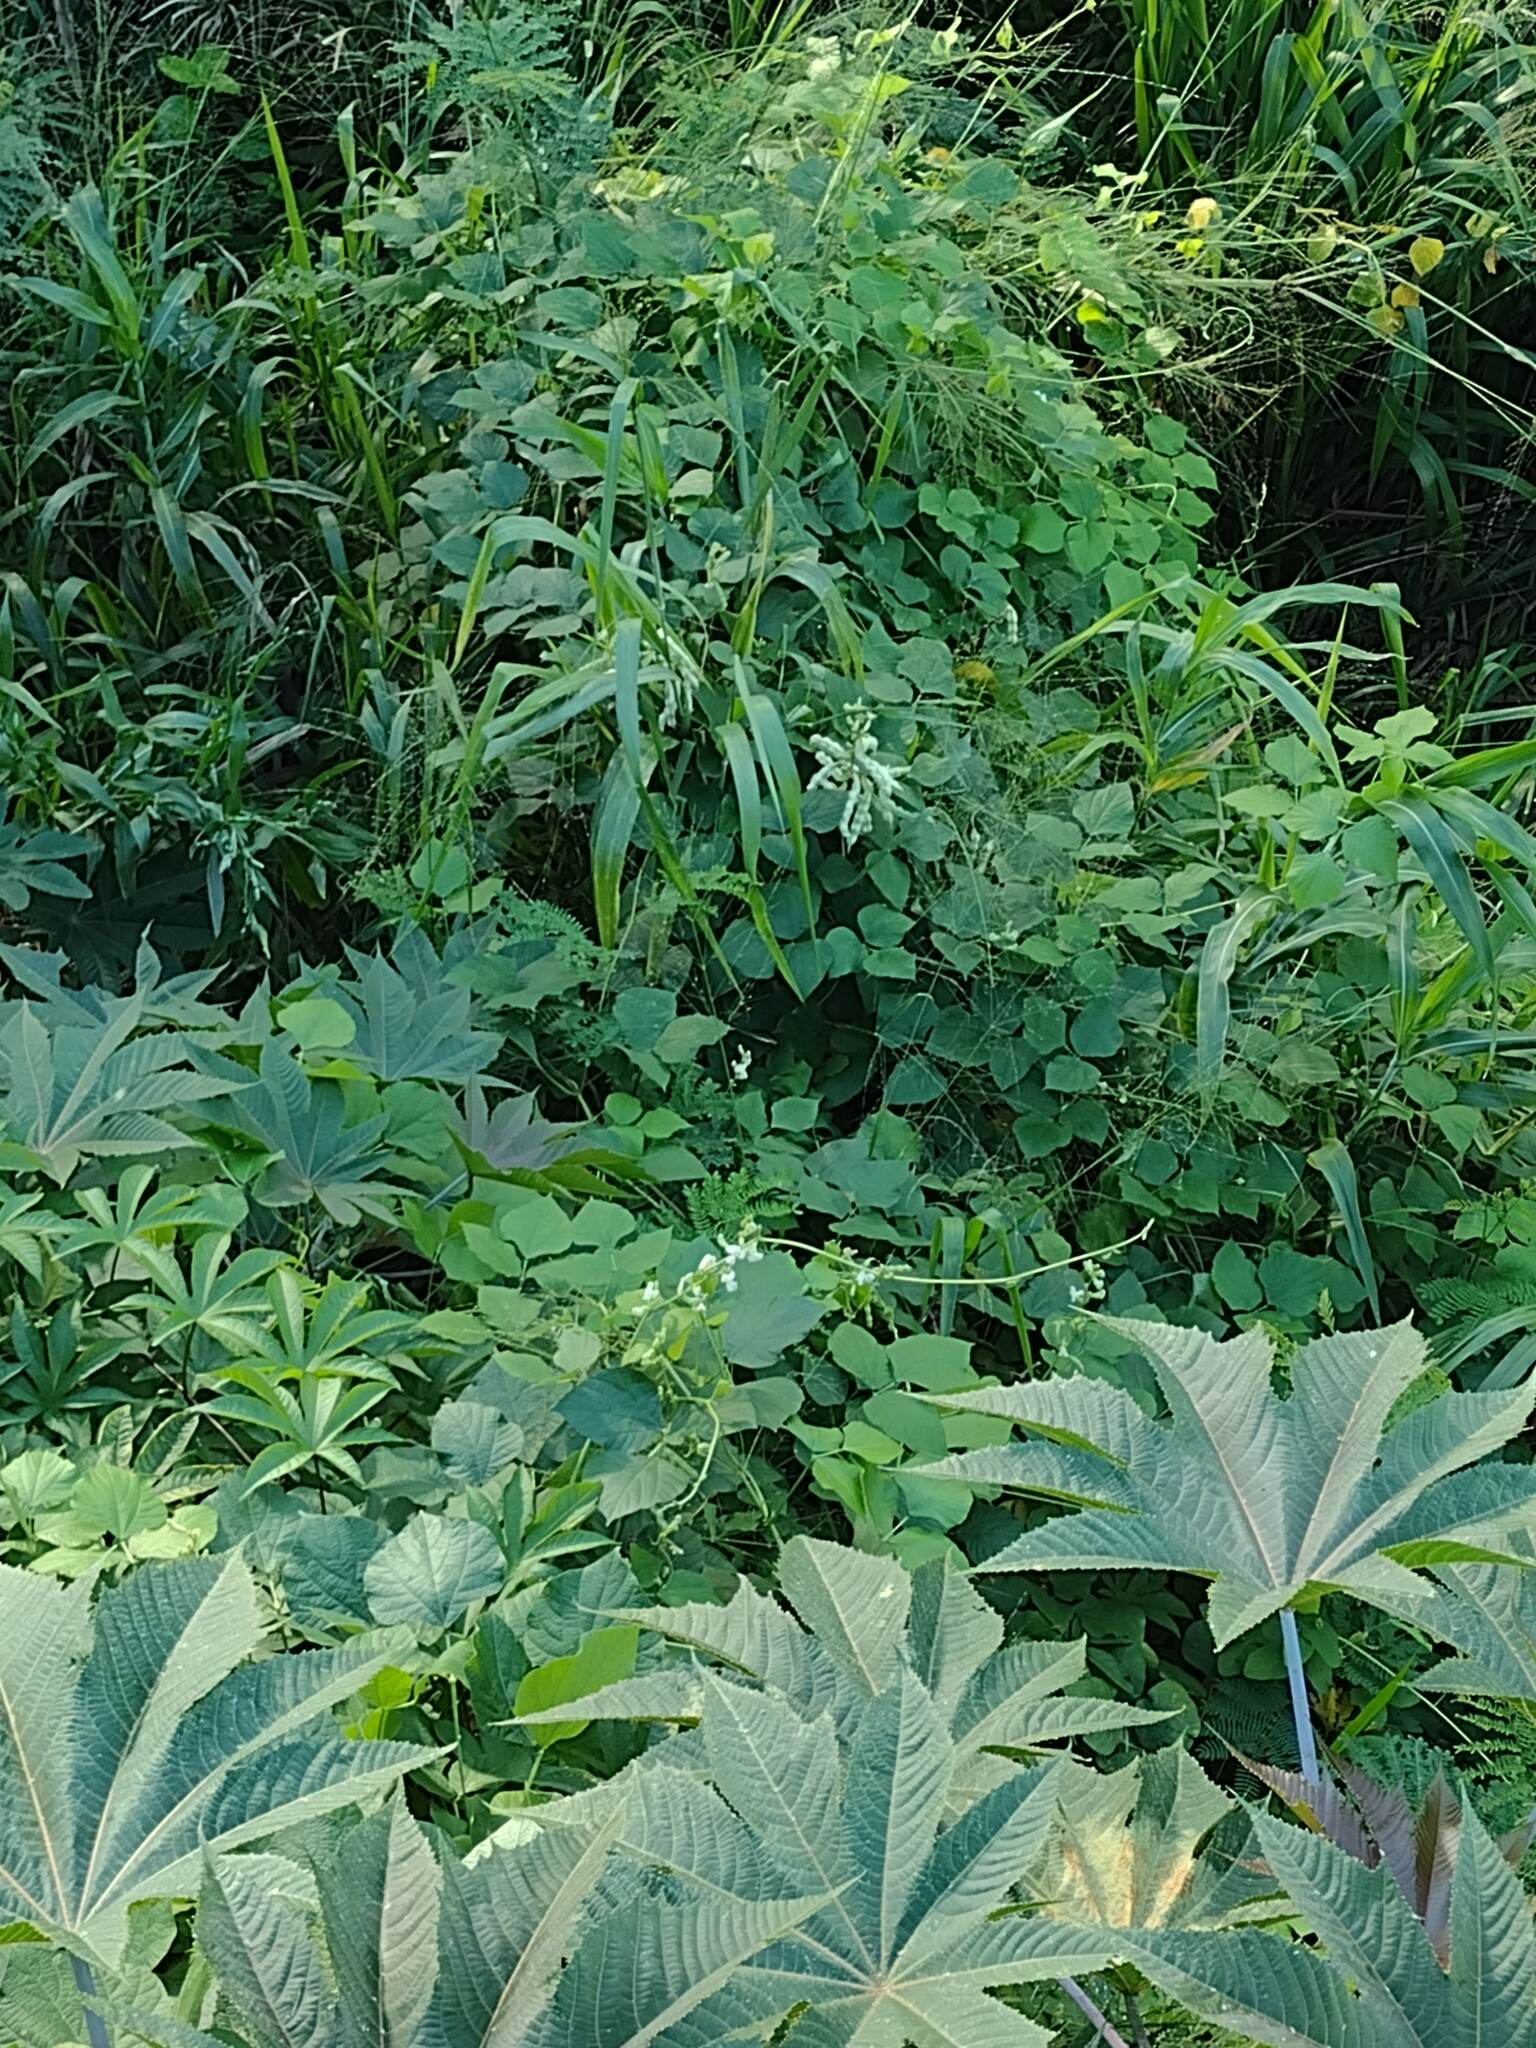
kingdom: Plantae
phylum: Tracheophyta
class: Magnoliopsida
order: Fabales
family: Fabaceae
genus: Lablab
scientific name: Lablab purpureus
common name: Lablab-bean
